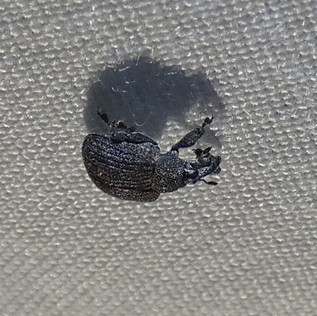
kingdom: Animalia
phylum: Arthropoda
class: Insecta
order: Coleoptera
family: Curculionidae
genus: Odontopus
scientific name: Odontopus calceatus
